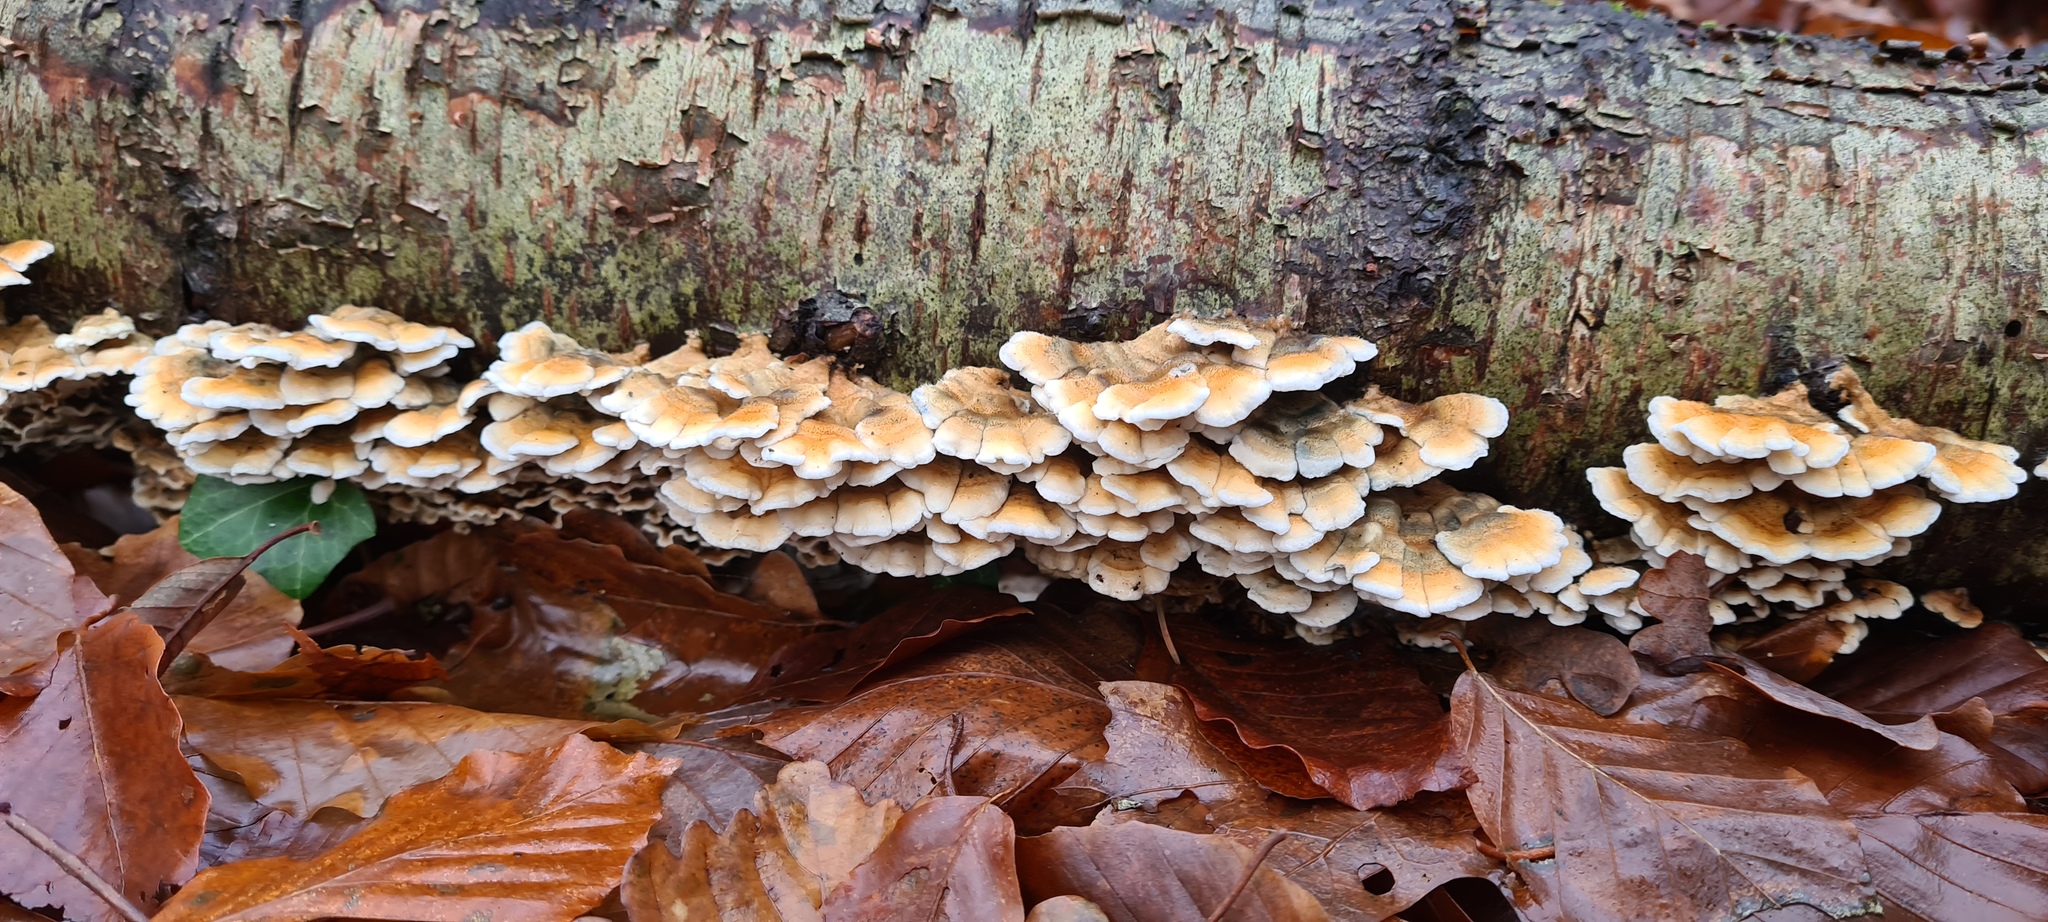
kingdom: Fungi
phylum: Basidiomycota
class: Agaricomycetes
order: Amylocorticiales
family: Amylocorticiaceae
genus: Plicaturopsis
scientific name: Plicaturopsis crispa
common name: Crimped gill
